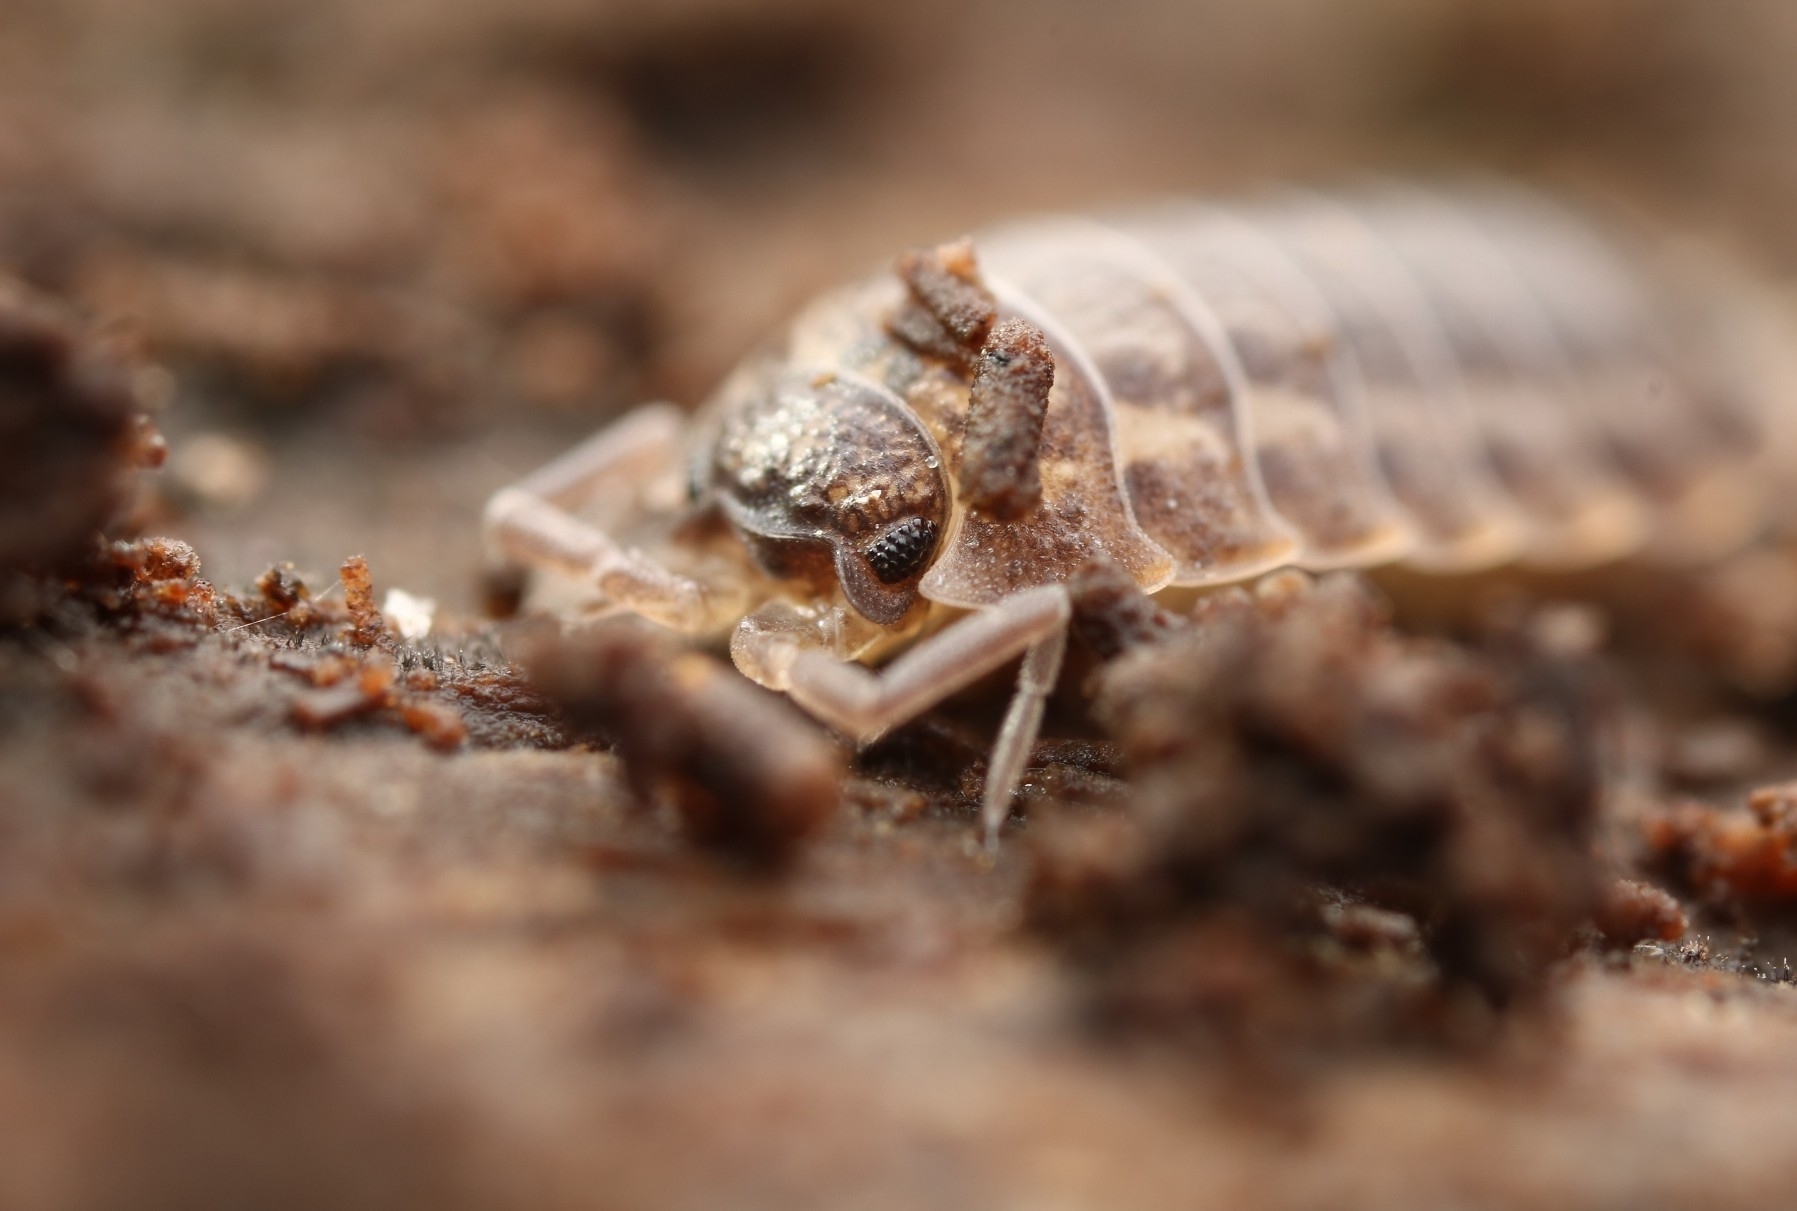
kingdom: Animalia
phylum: Arthropoda
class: Malacostraca
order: Isopoda
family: Trachelipodidae
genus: Trachelipus
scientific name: Trachelipus rathkii
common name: Isopod
